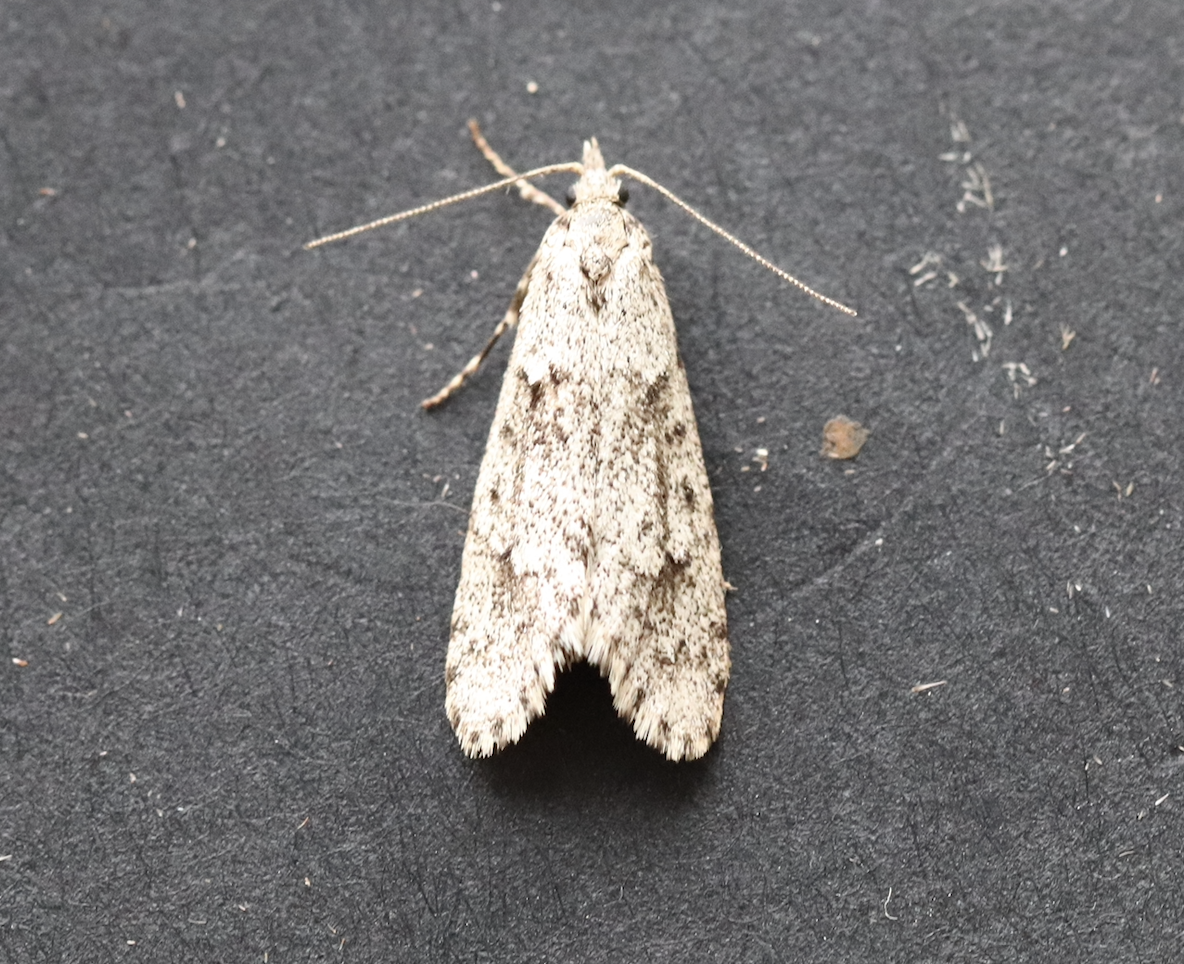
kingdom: Animalia
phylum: Arthropoda
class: Insecta
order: Lepidoptera
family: Lypusidae
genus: Diurnea
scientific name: Diurnea fagella
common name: March tubic
